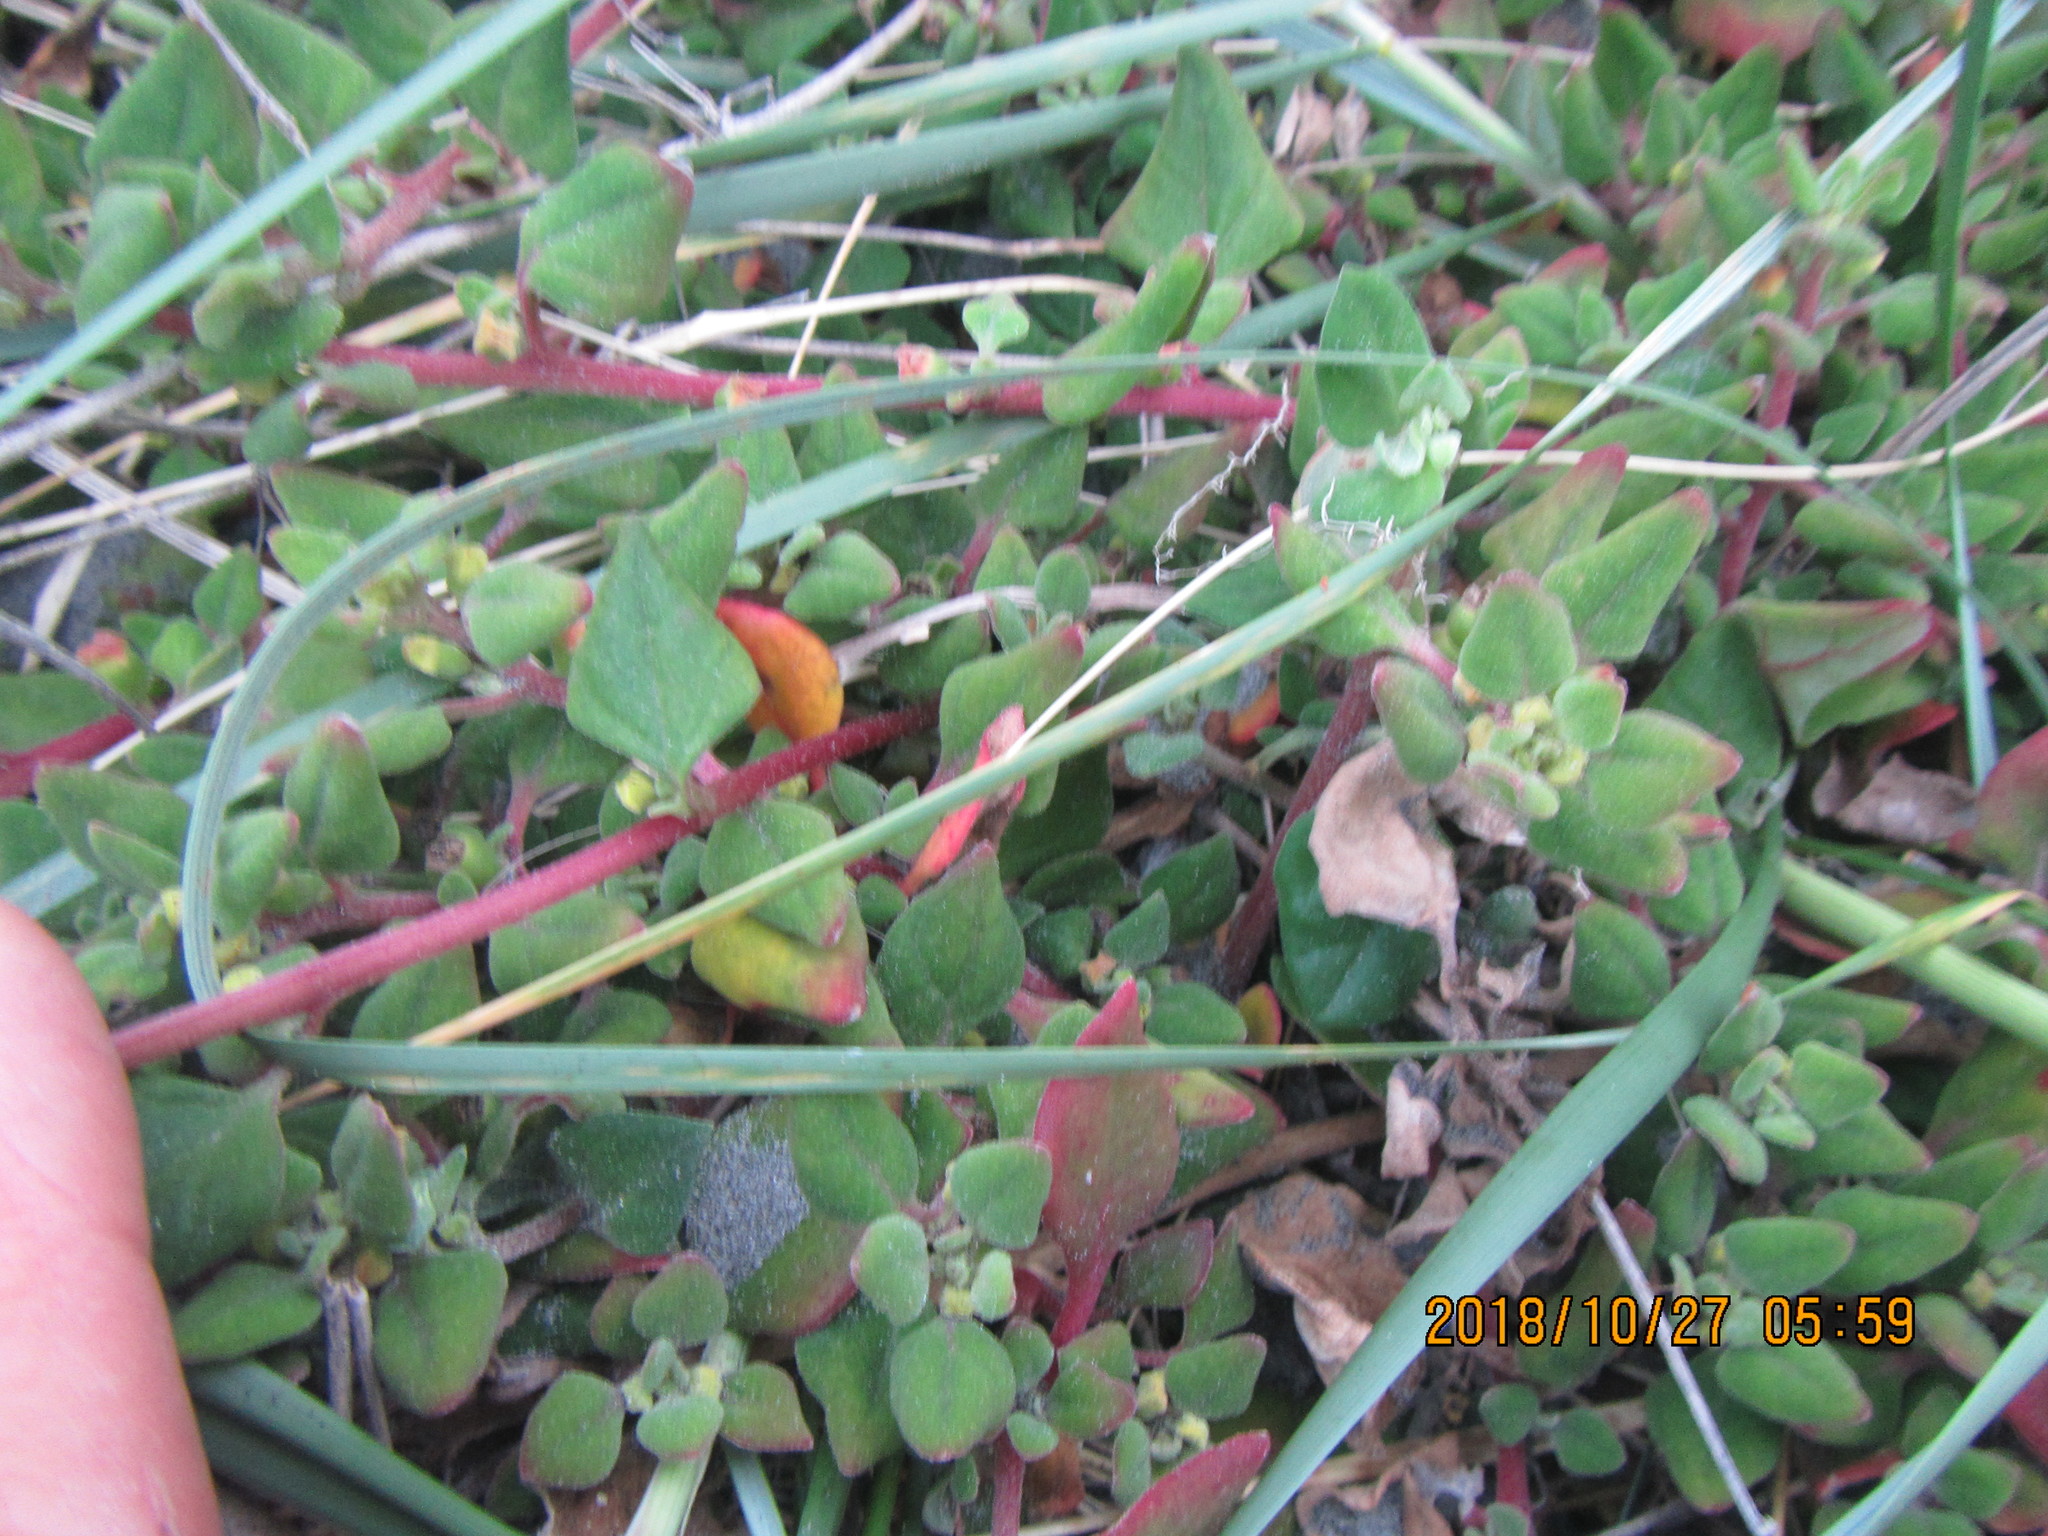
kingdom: Plantae
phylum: Tracheophyta
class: Magnoliopsida
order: Caryophyllales
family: Aizoaceae
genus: Tetragonia
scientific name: Tetragonia implexicoma
